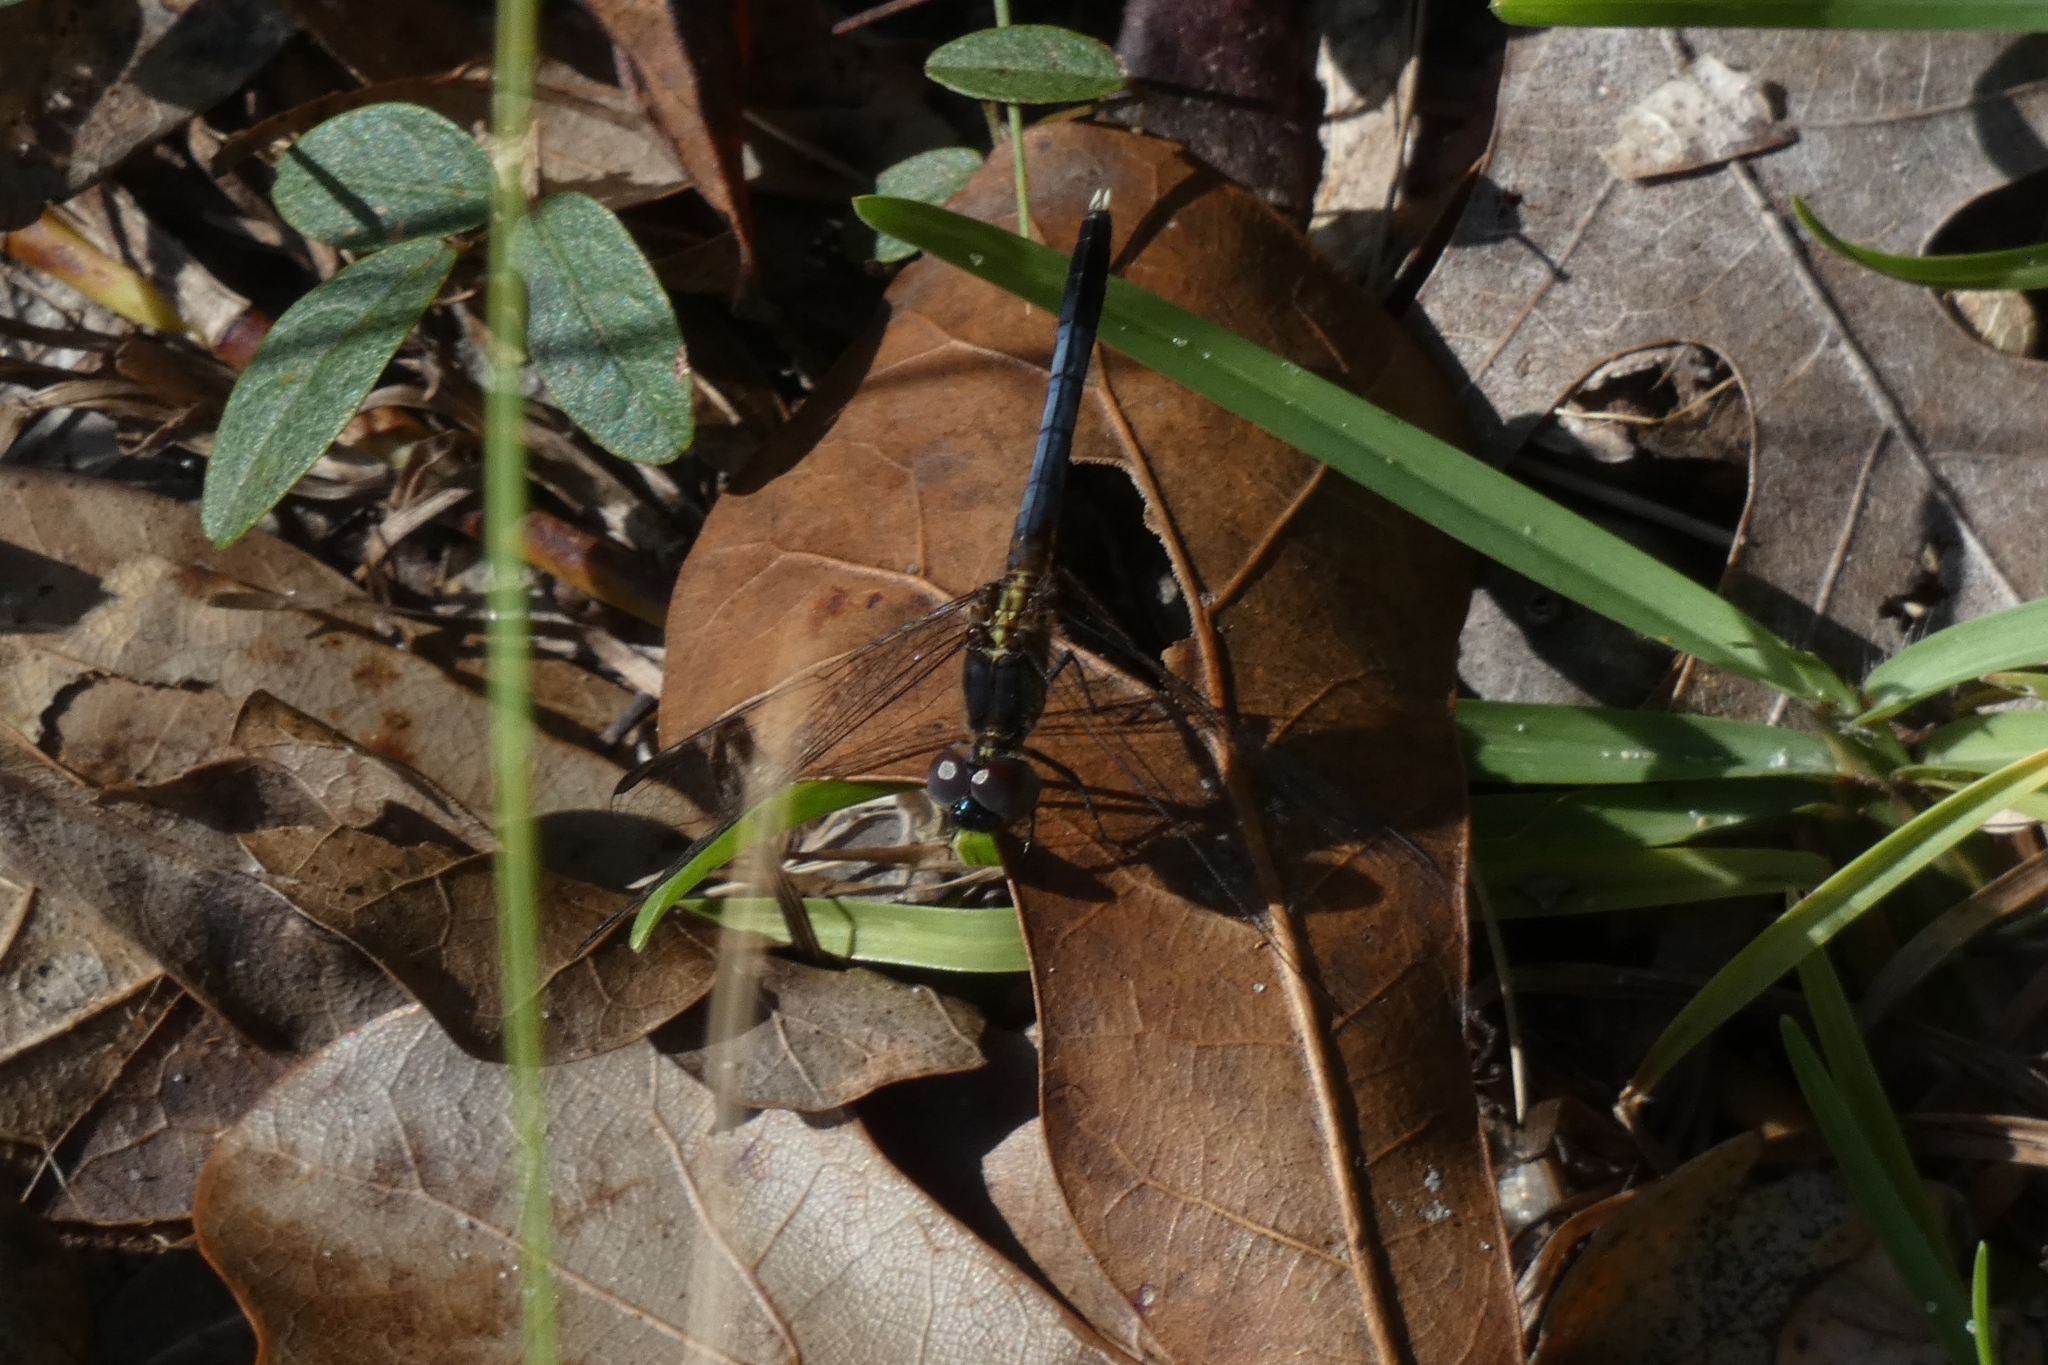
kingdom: Animalia
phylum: Arthropoda
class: Insecta
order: Odonata
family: Libellulidae
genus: Erythrodiplax
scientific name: Erythrodiplax minuscula
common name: Little blue dragonlet
